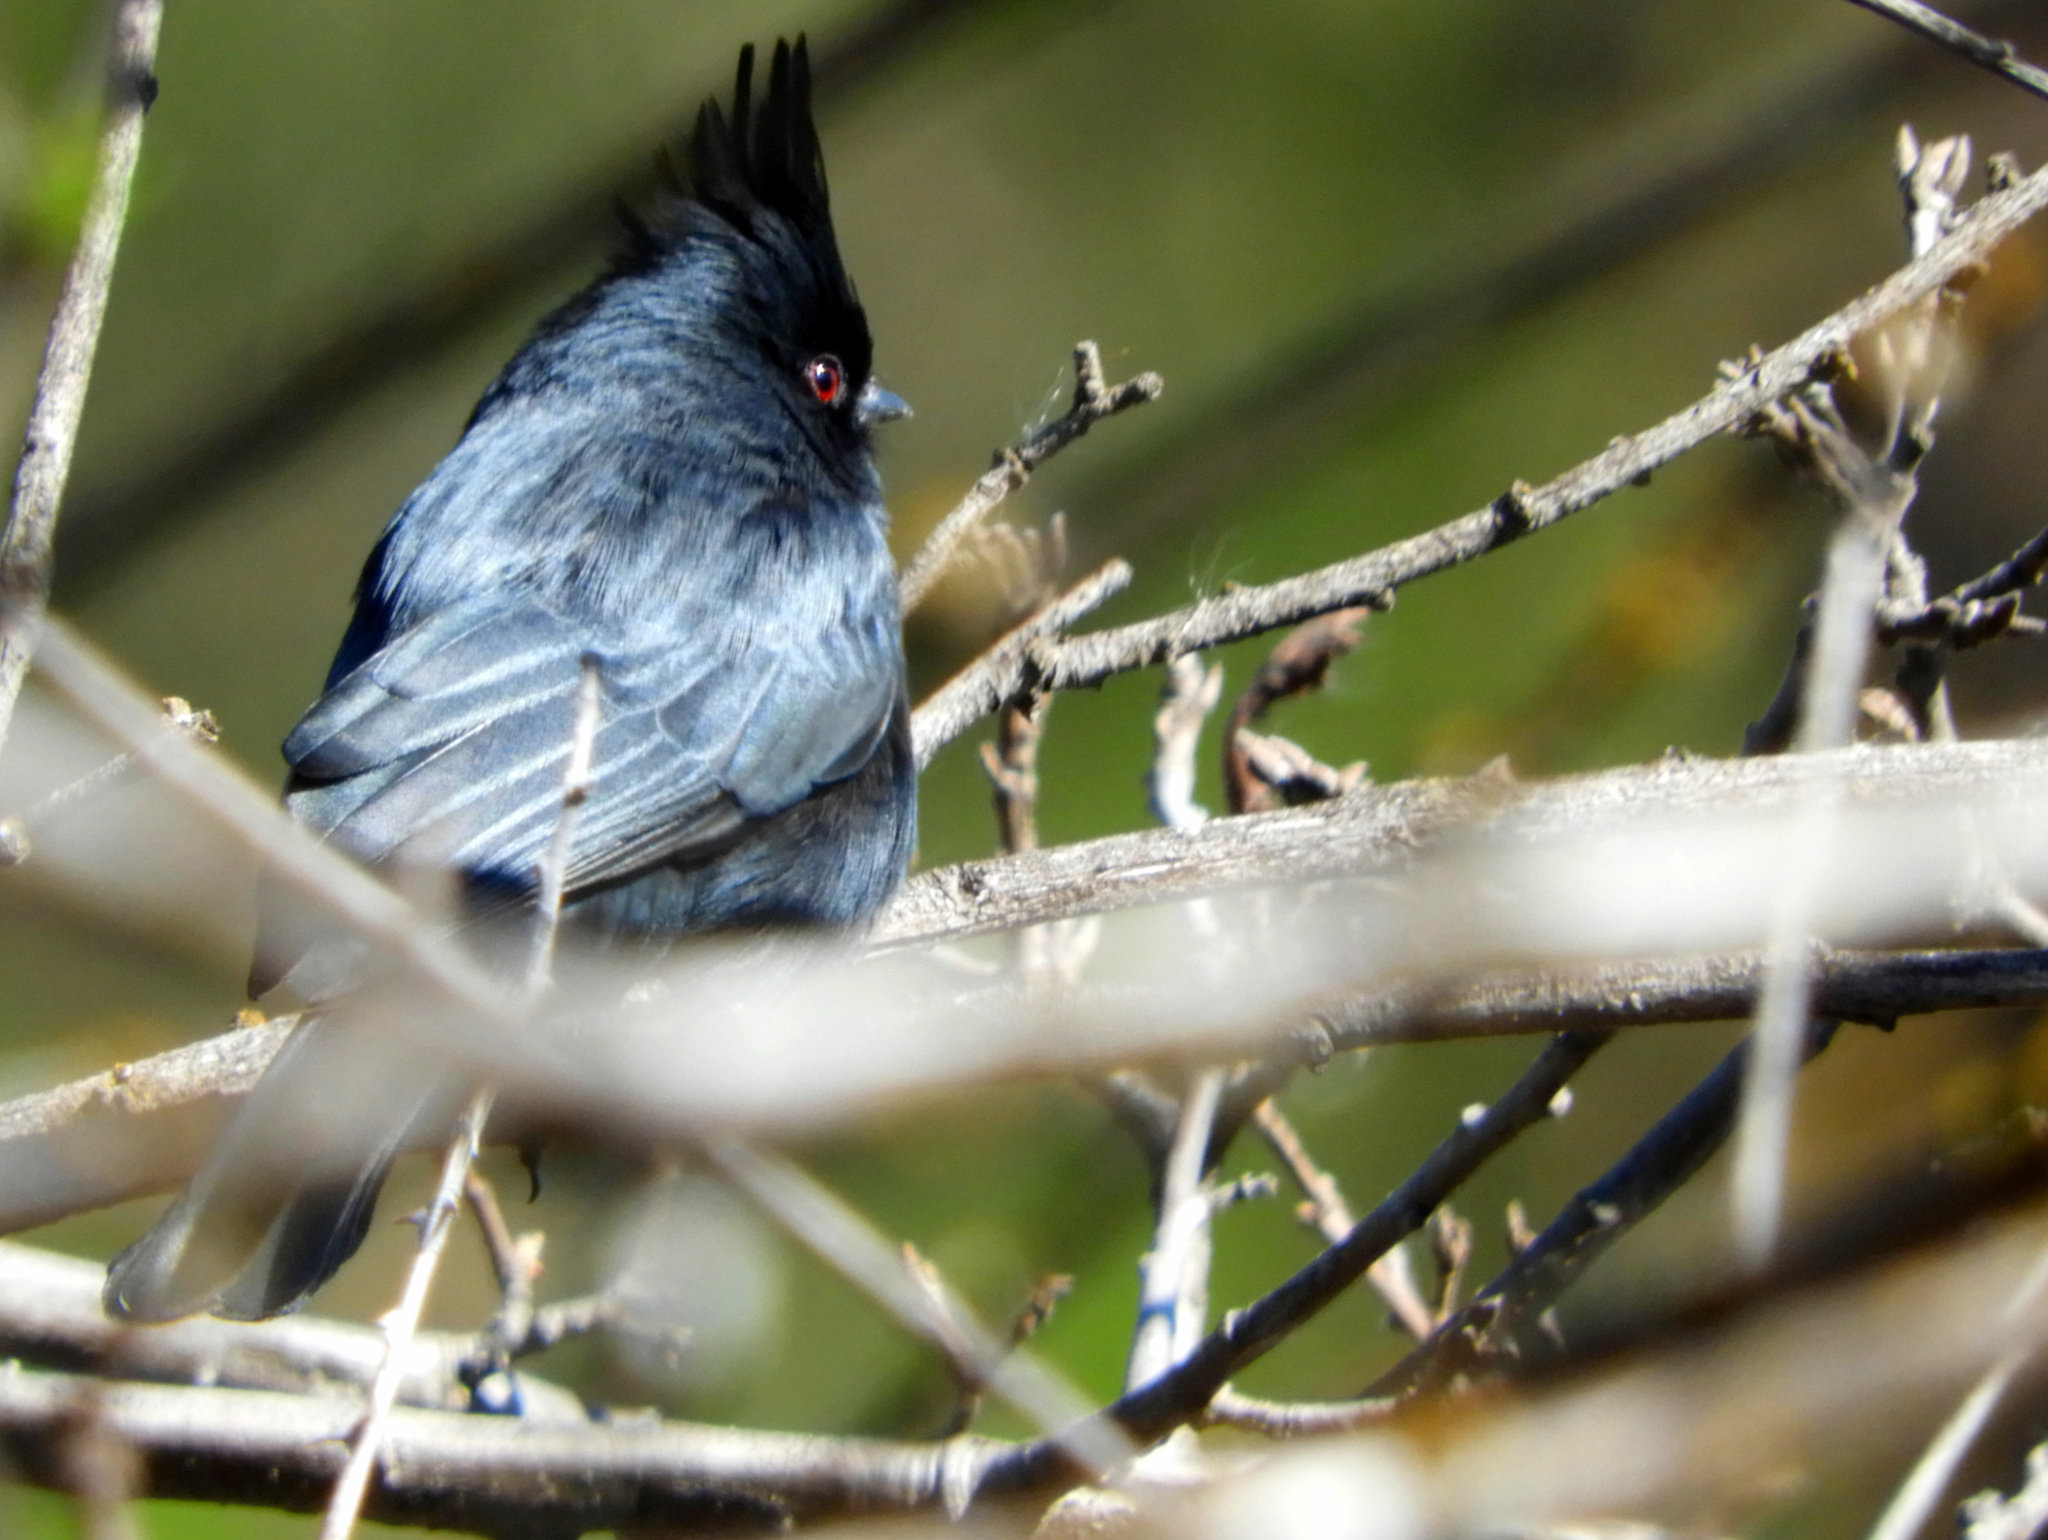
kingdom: Animalia
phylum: Chordata
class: Aves
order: Passeriformes
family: Ptilogonatidae
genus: Phainopepla
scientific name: Phainopepla nitens
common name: Phainopepla
